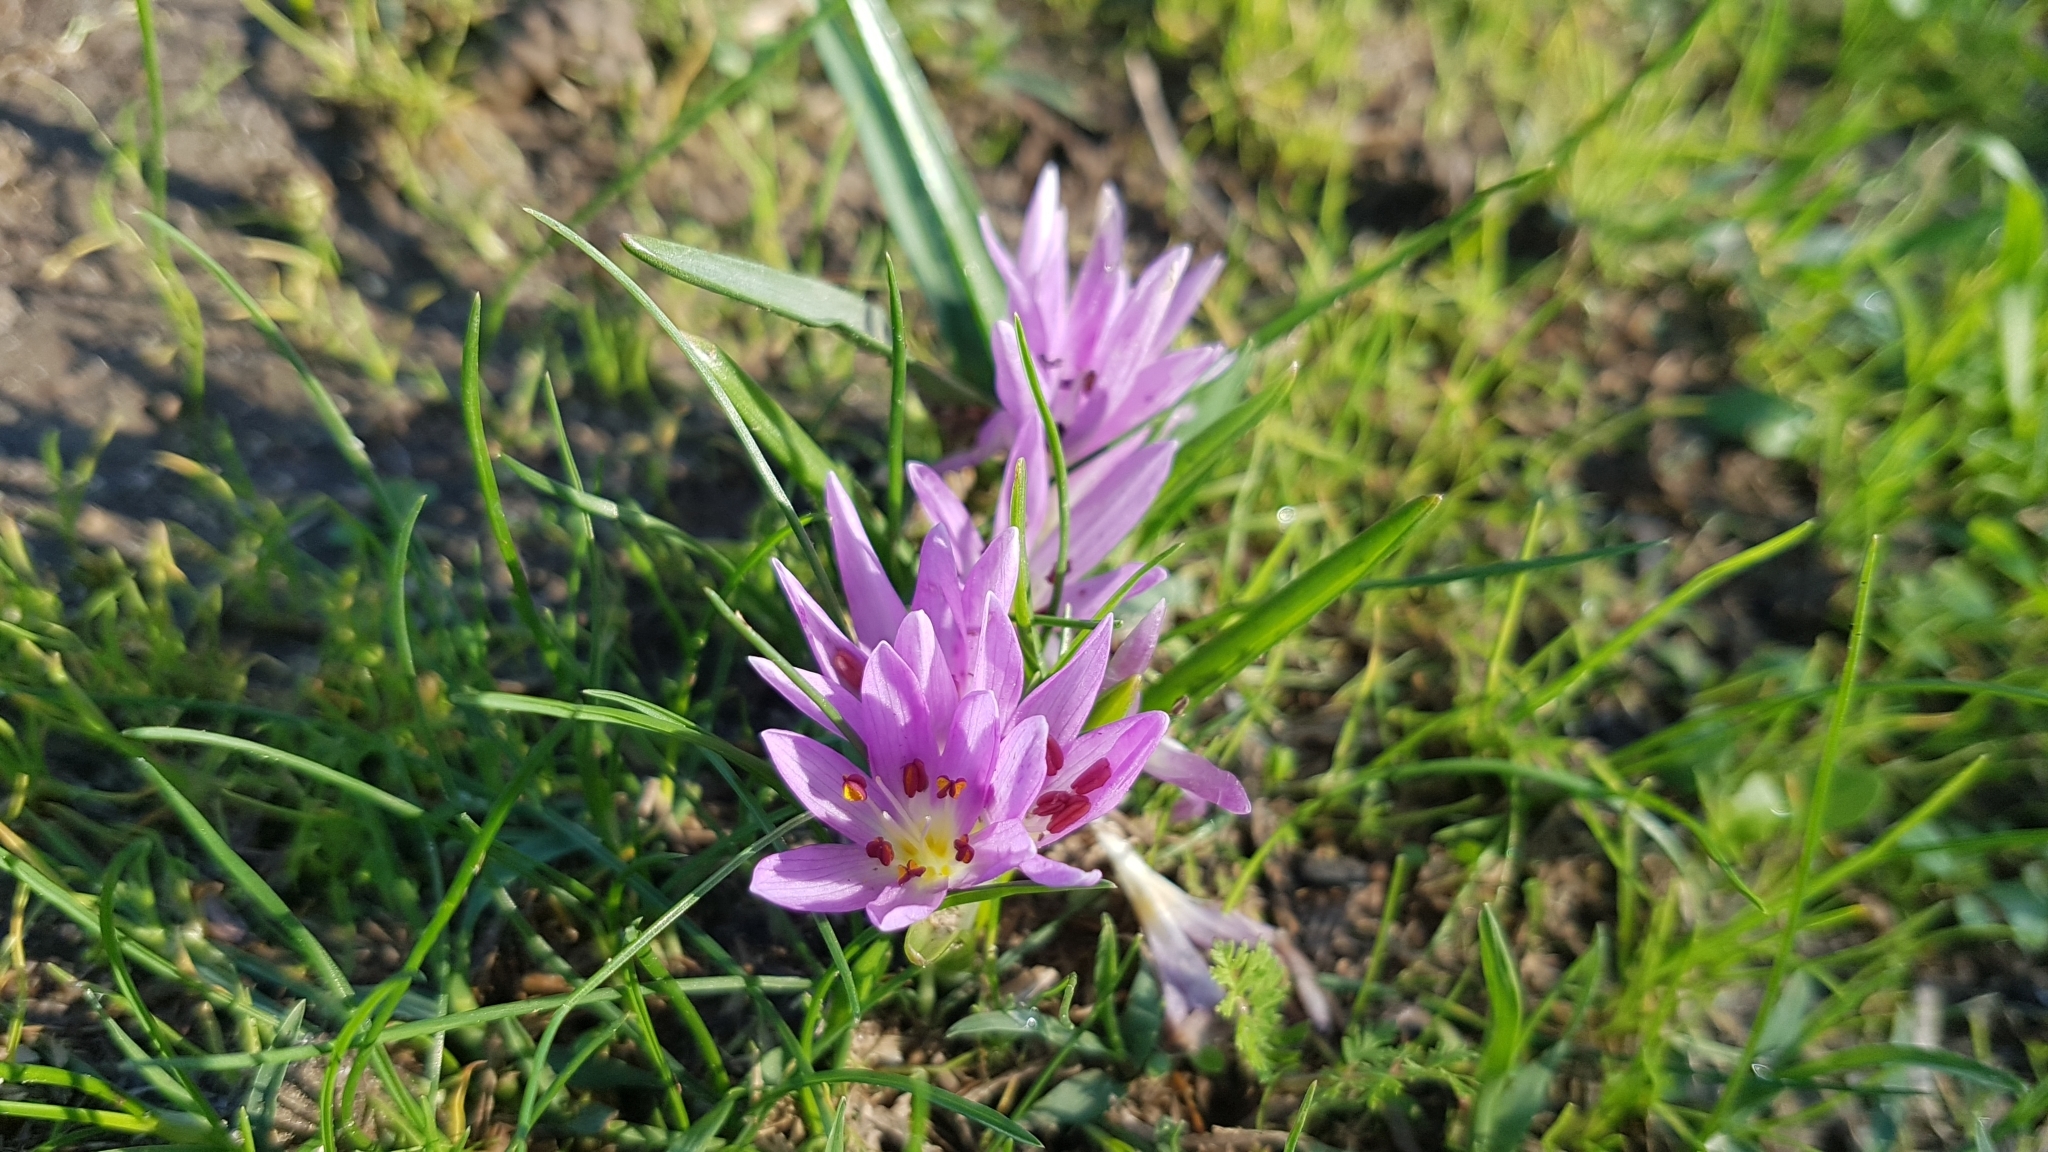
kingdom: Plantae
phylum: Tracheophyta
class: Liliopsida
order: Liliales
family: Colchicaceae
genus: Colchicum
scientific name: Colchicum cupanii
